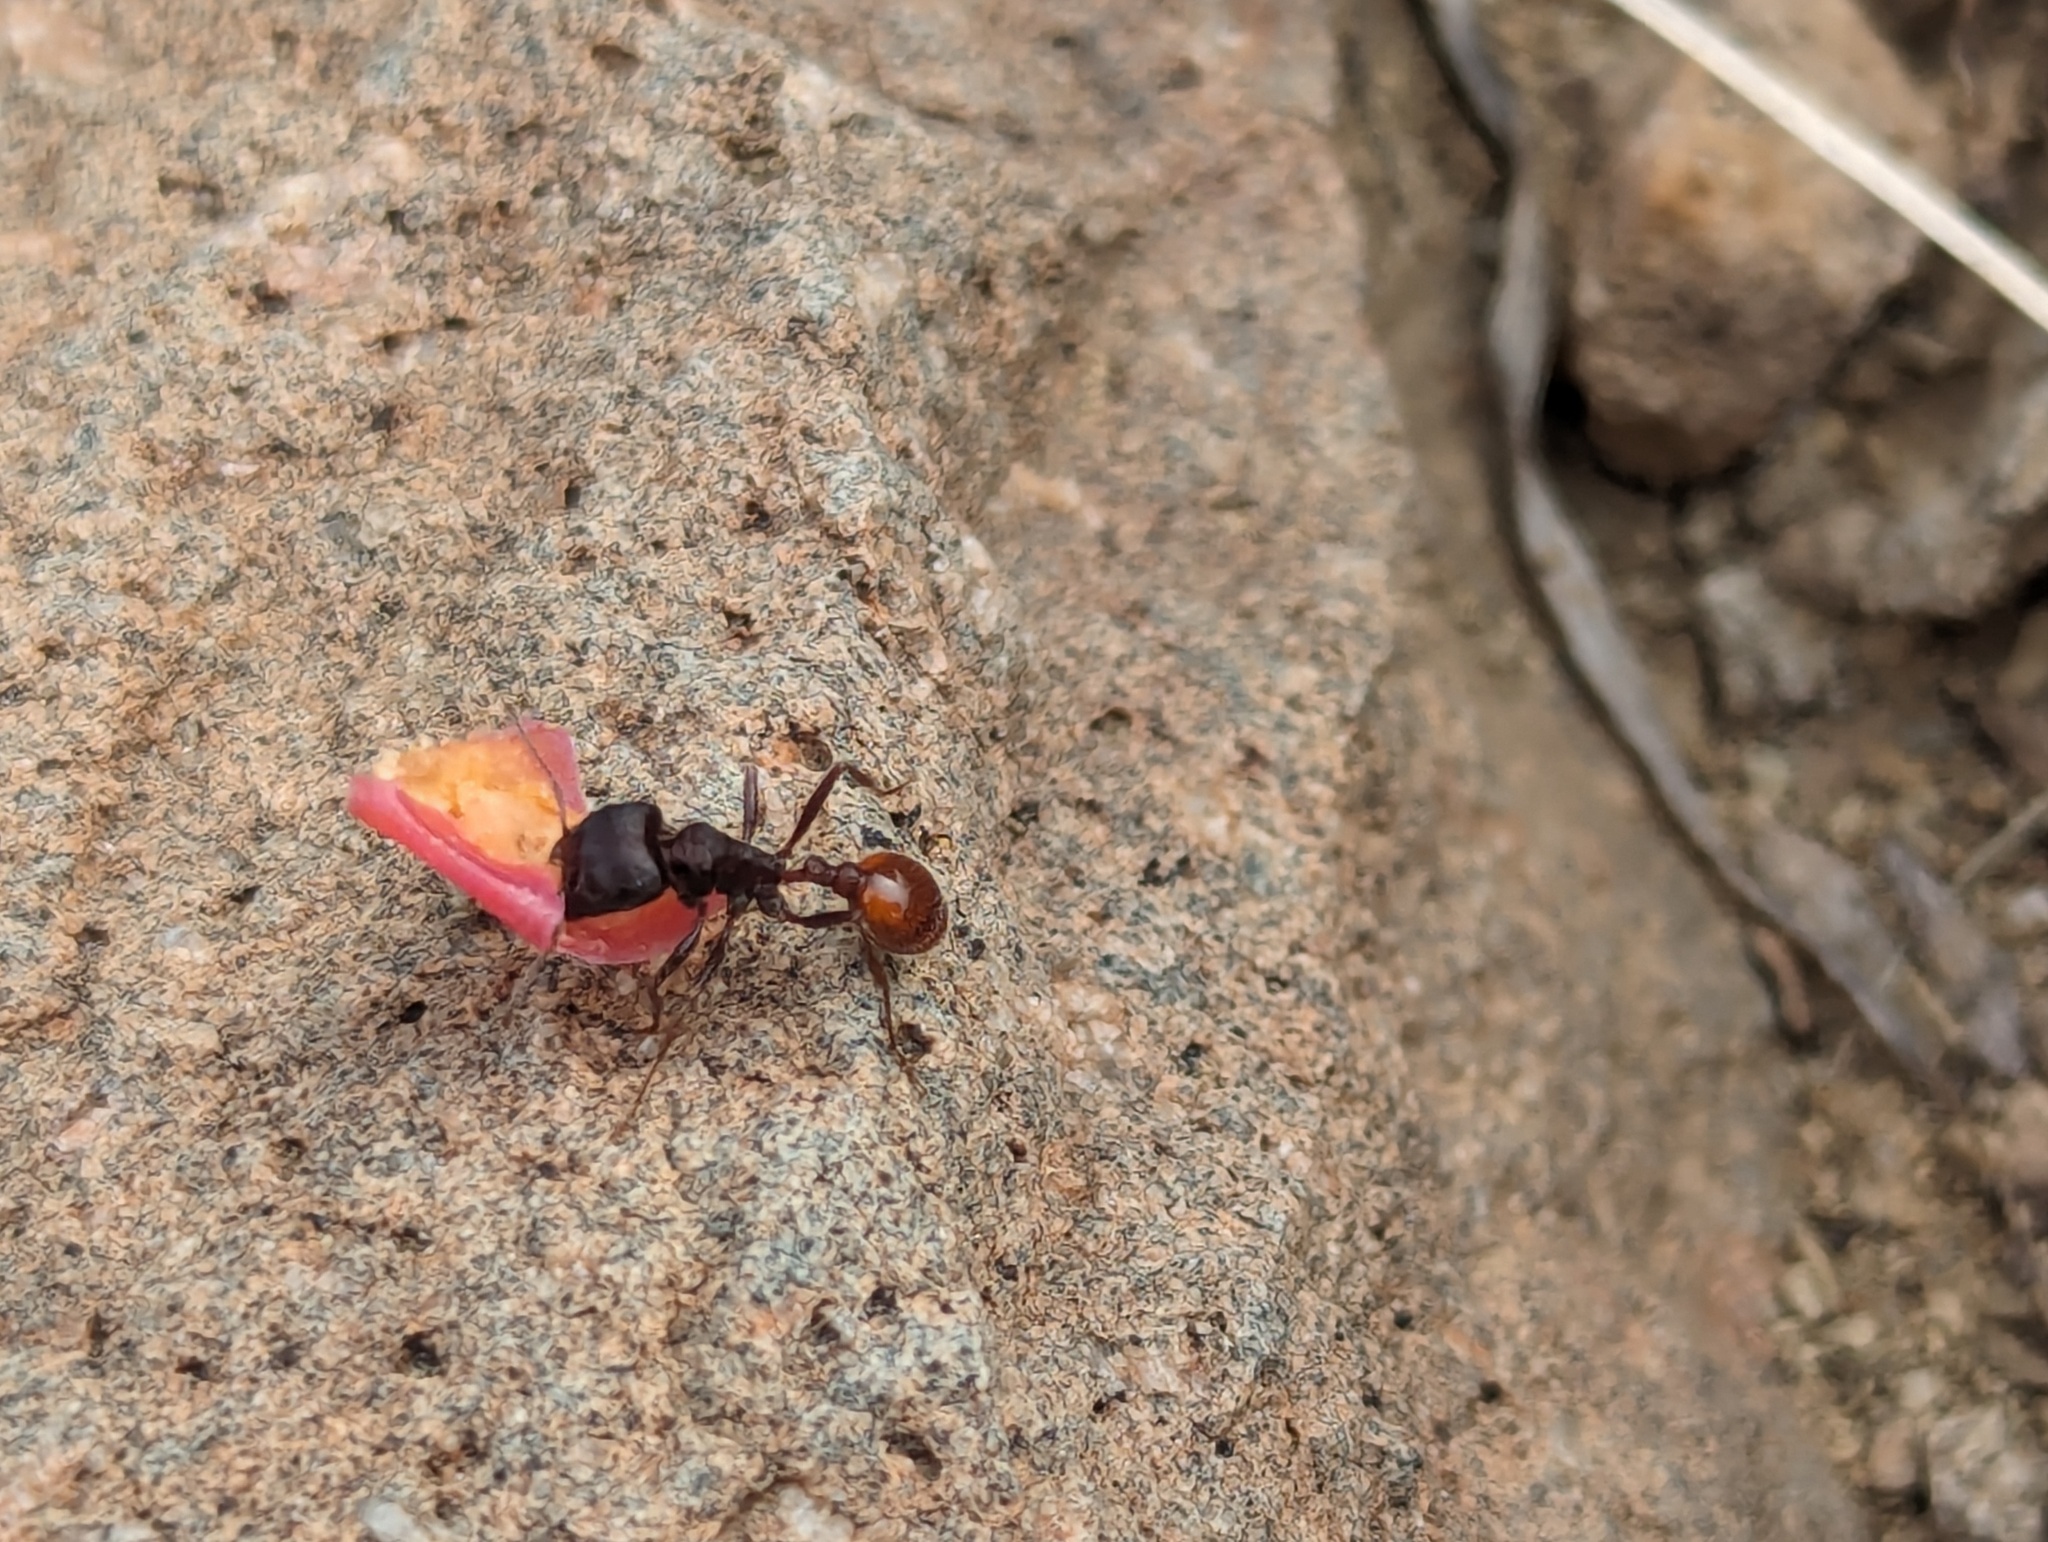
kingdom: Animalia
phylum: Arthropoda
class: Insecta
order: Hymenoptera
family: Formicidae
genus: Pogonomyrmex
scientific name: Pogonomyrmex rugosus
